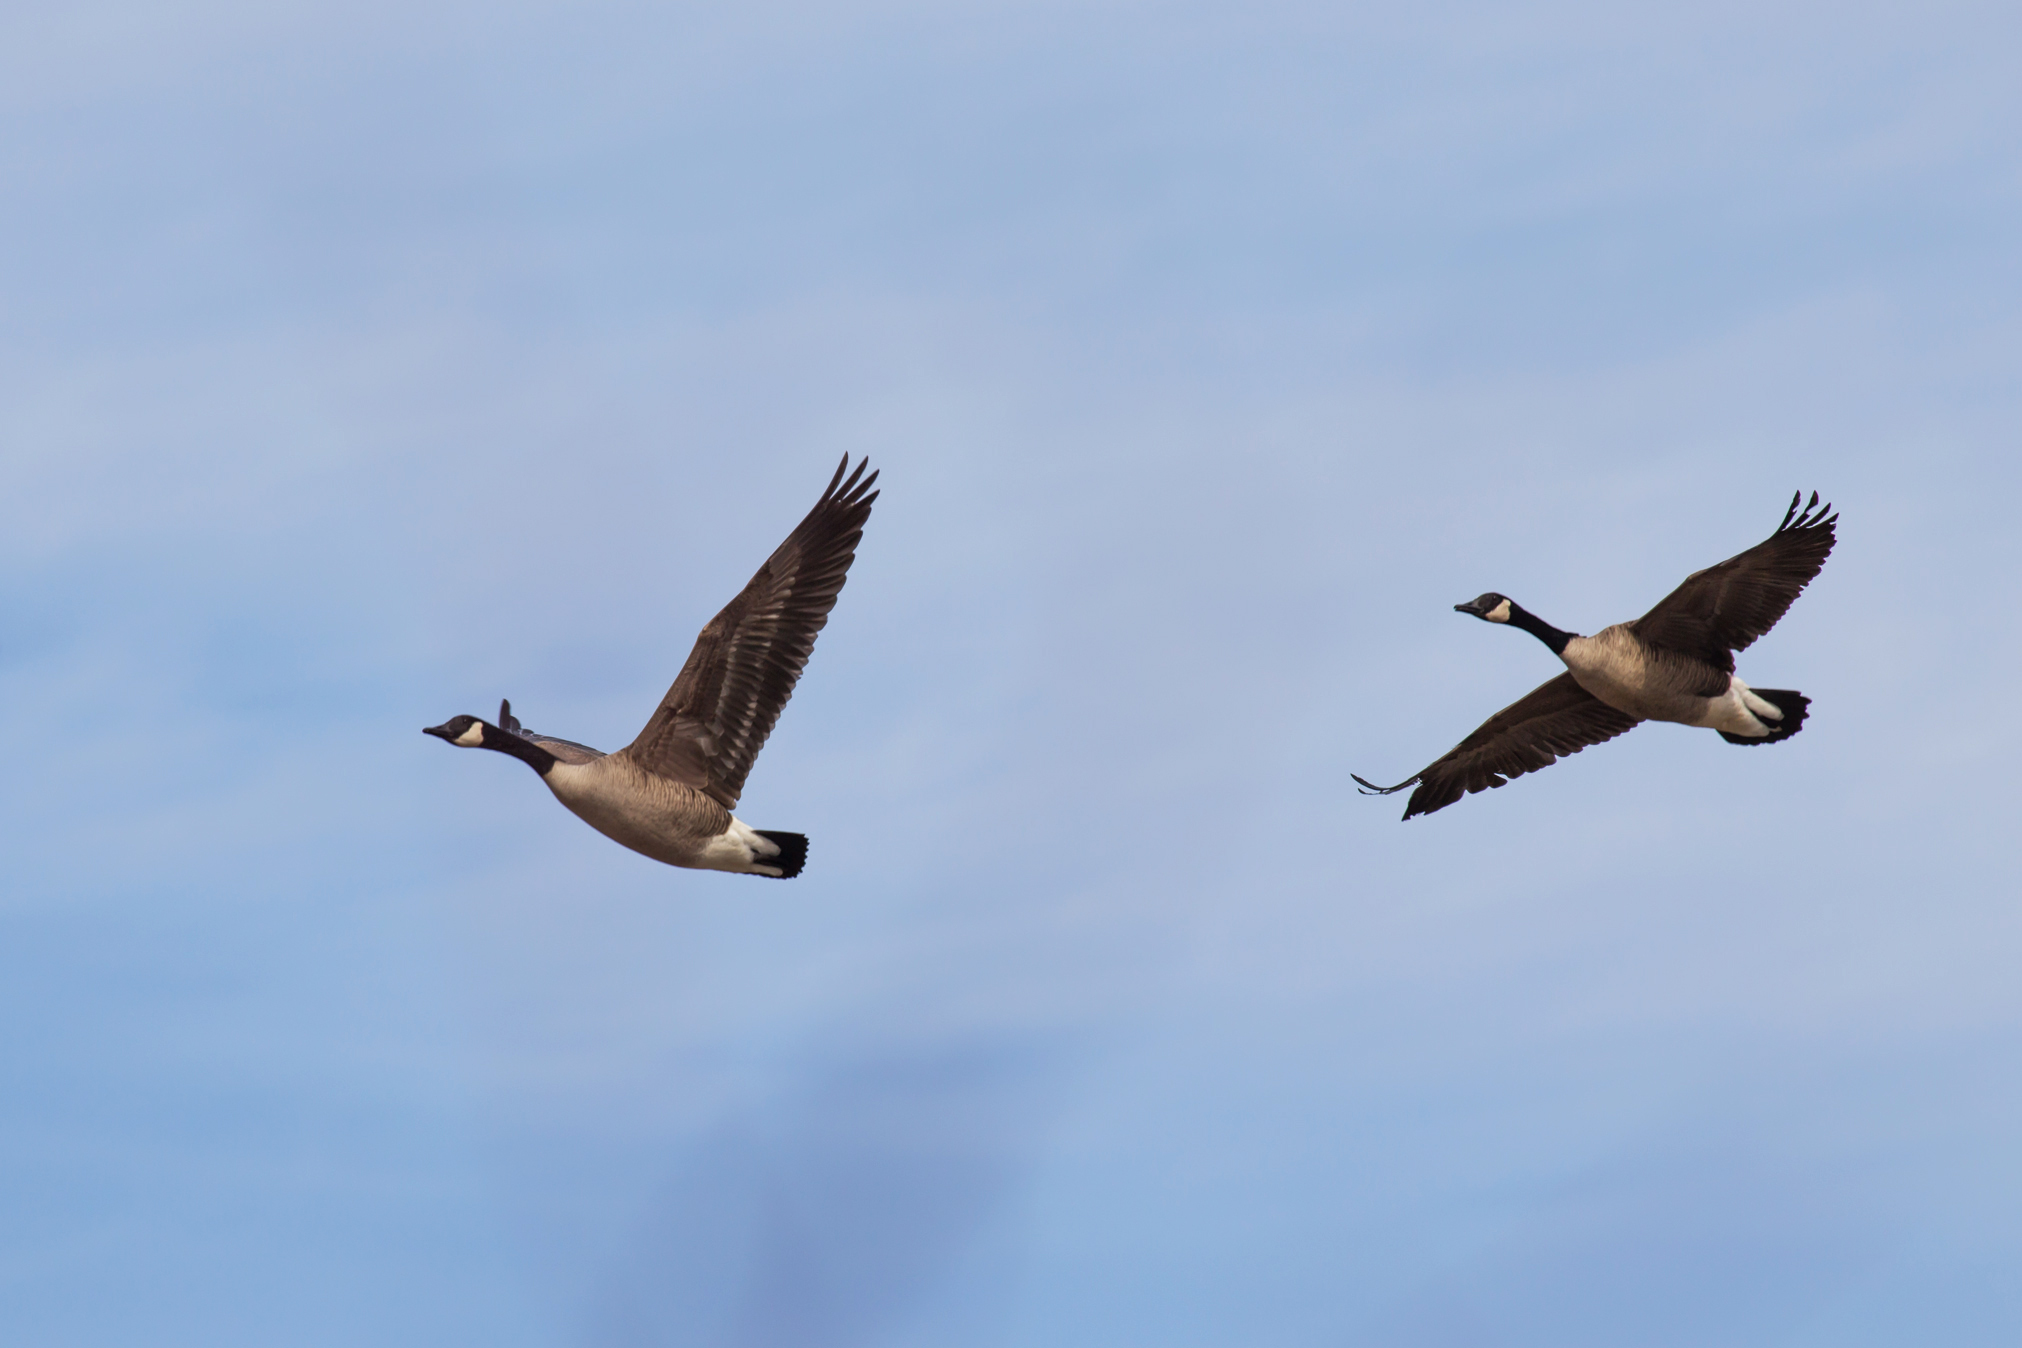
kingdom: Animalia
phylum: Chordata
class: Aves
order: Anseriformes
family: Anatidae
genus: Branta
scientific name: Branta canadensis
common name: Canada goose
